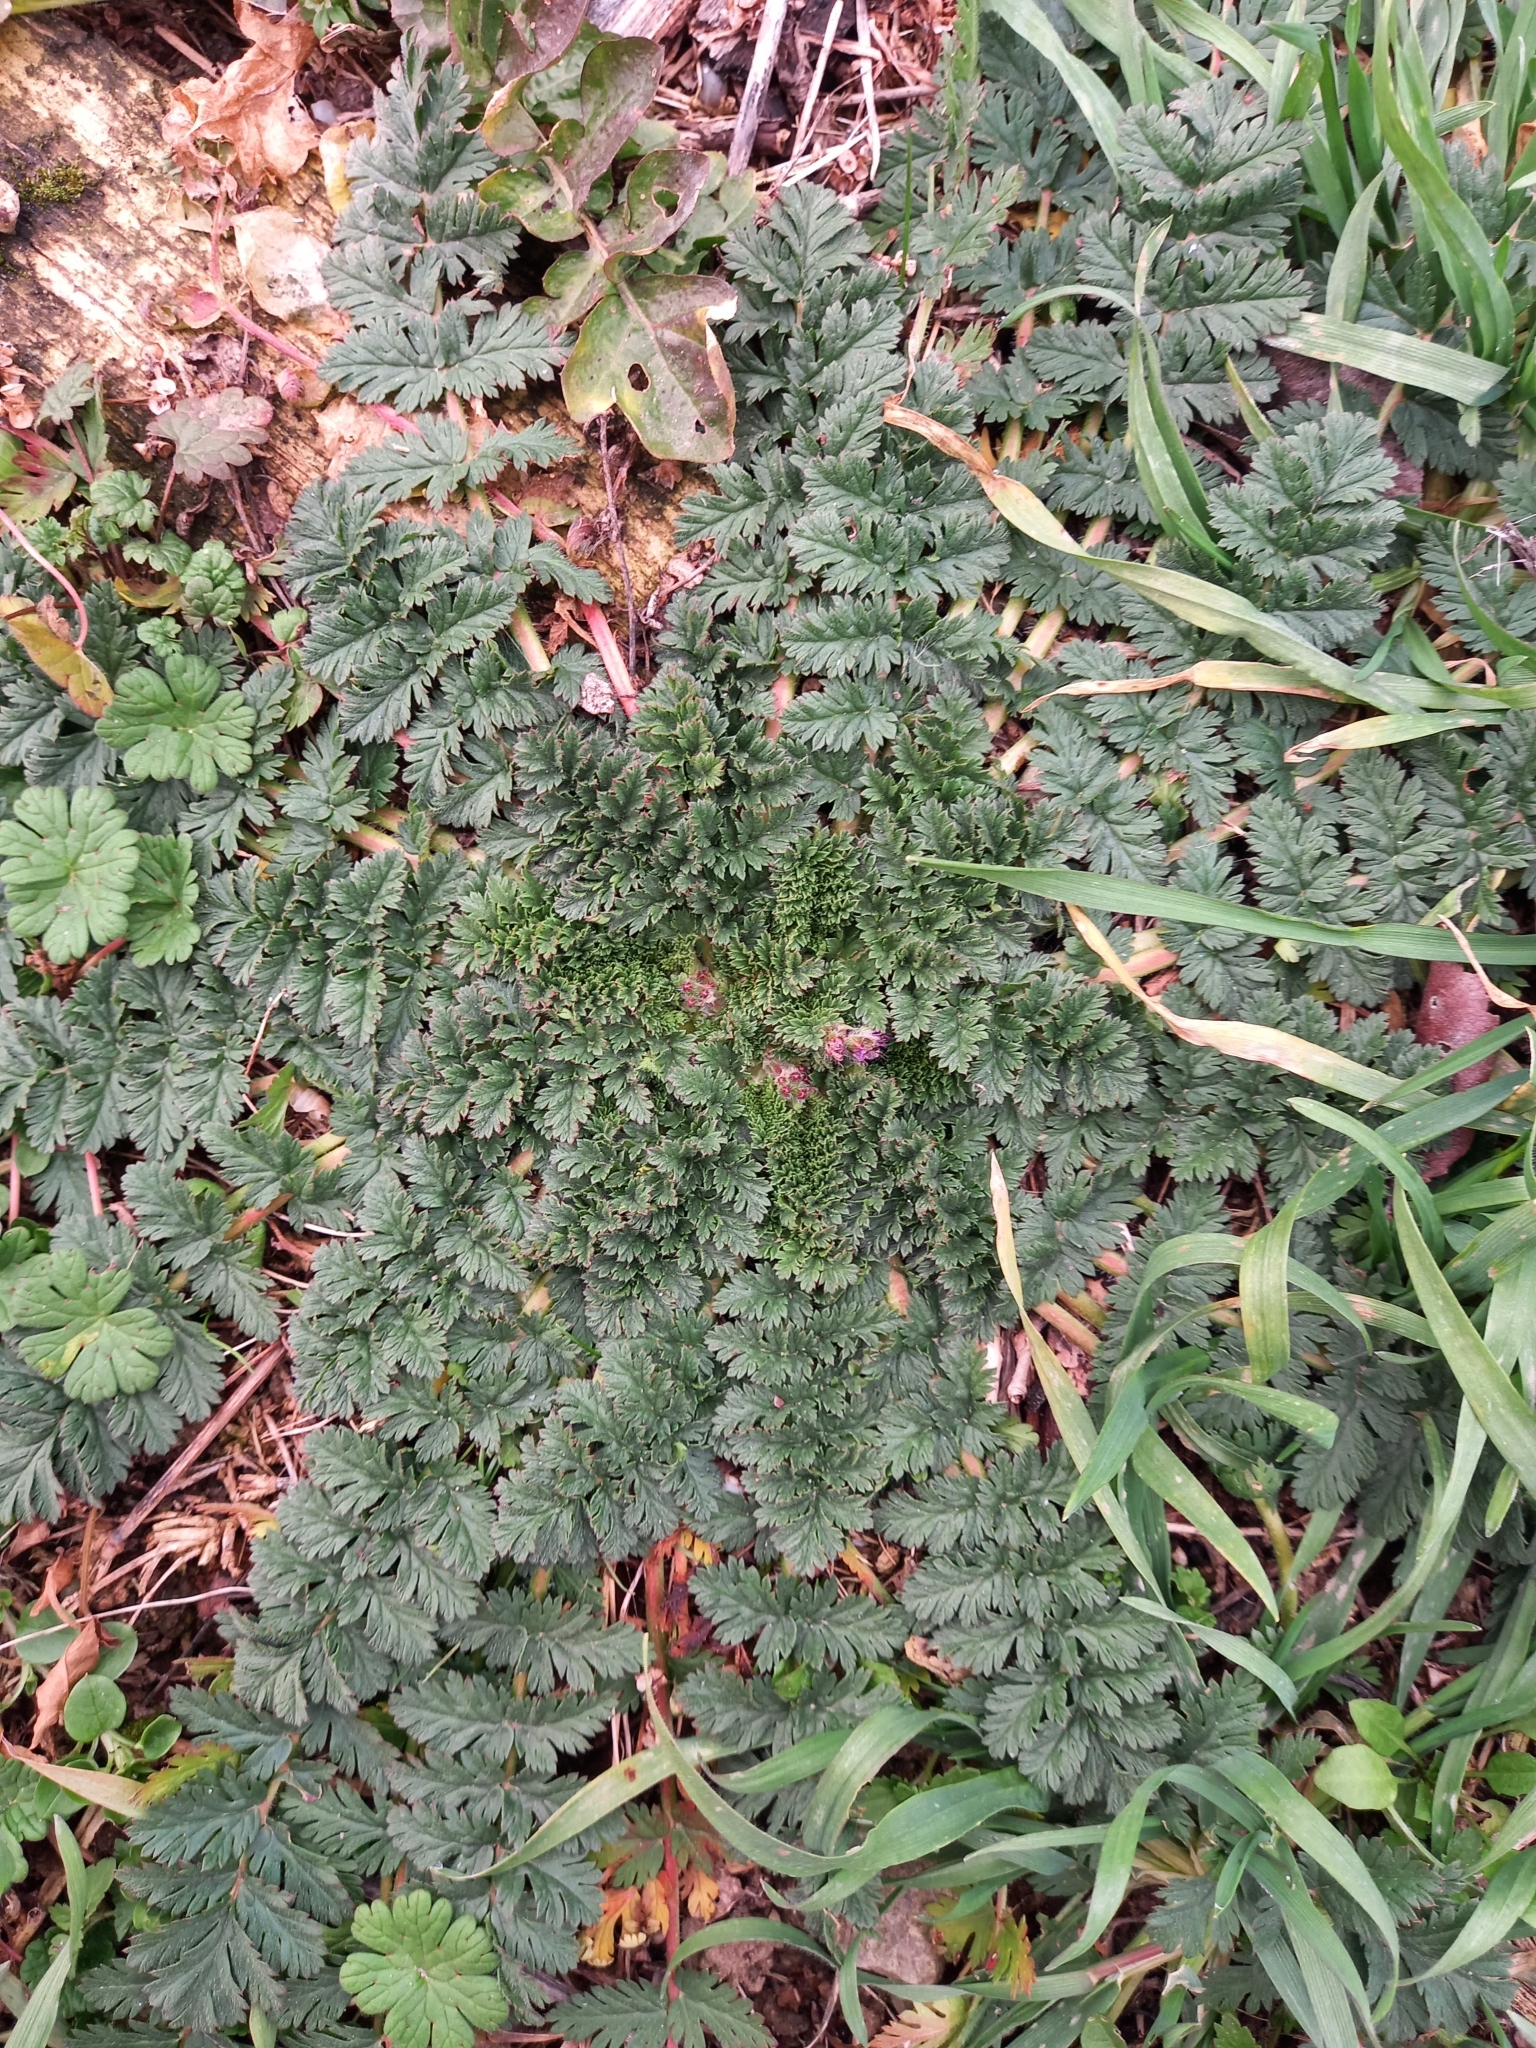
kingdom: Plantae
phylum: Tracheophyta
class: Magnoliopsida
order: Geraniales
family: Geraniaceae
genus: Erodium
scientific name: Erodium cicutarium
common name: Common stork's-bill
